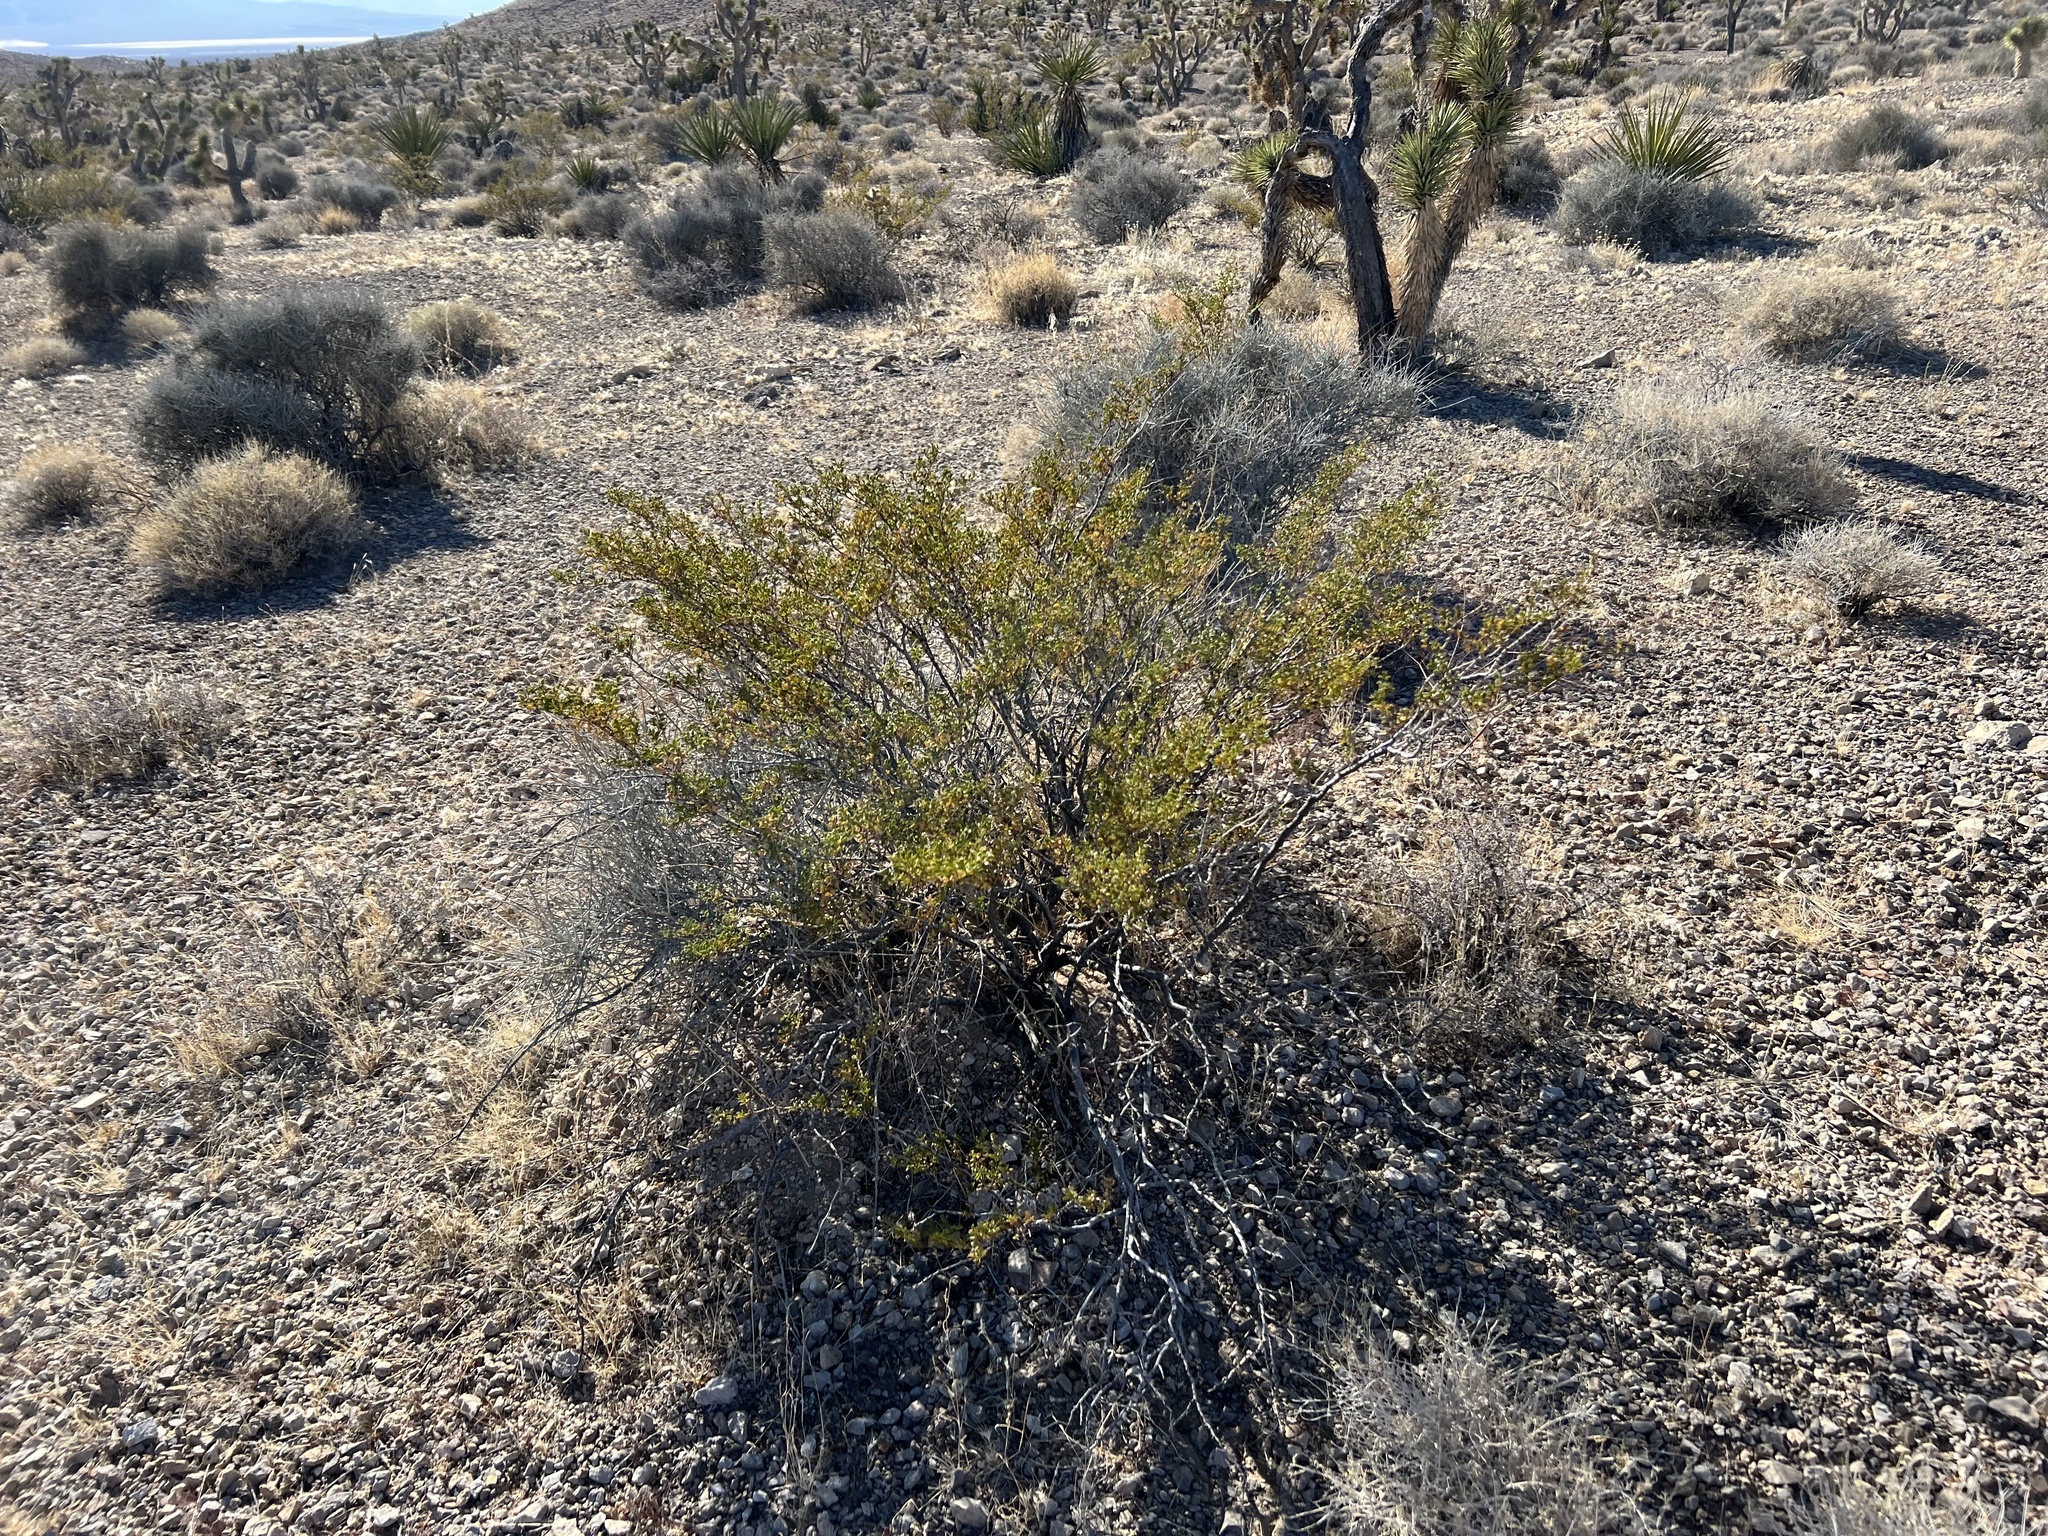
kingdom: Plantae
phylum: Tracheophyta
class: Magnoliopsida
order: Zygophyllales
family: Zygophyllaceae
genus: Larrea
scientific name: Larrea tridentata
